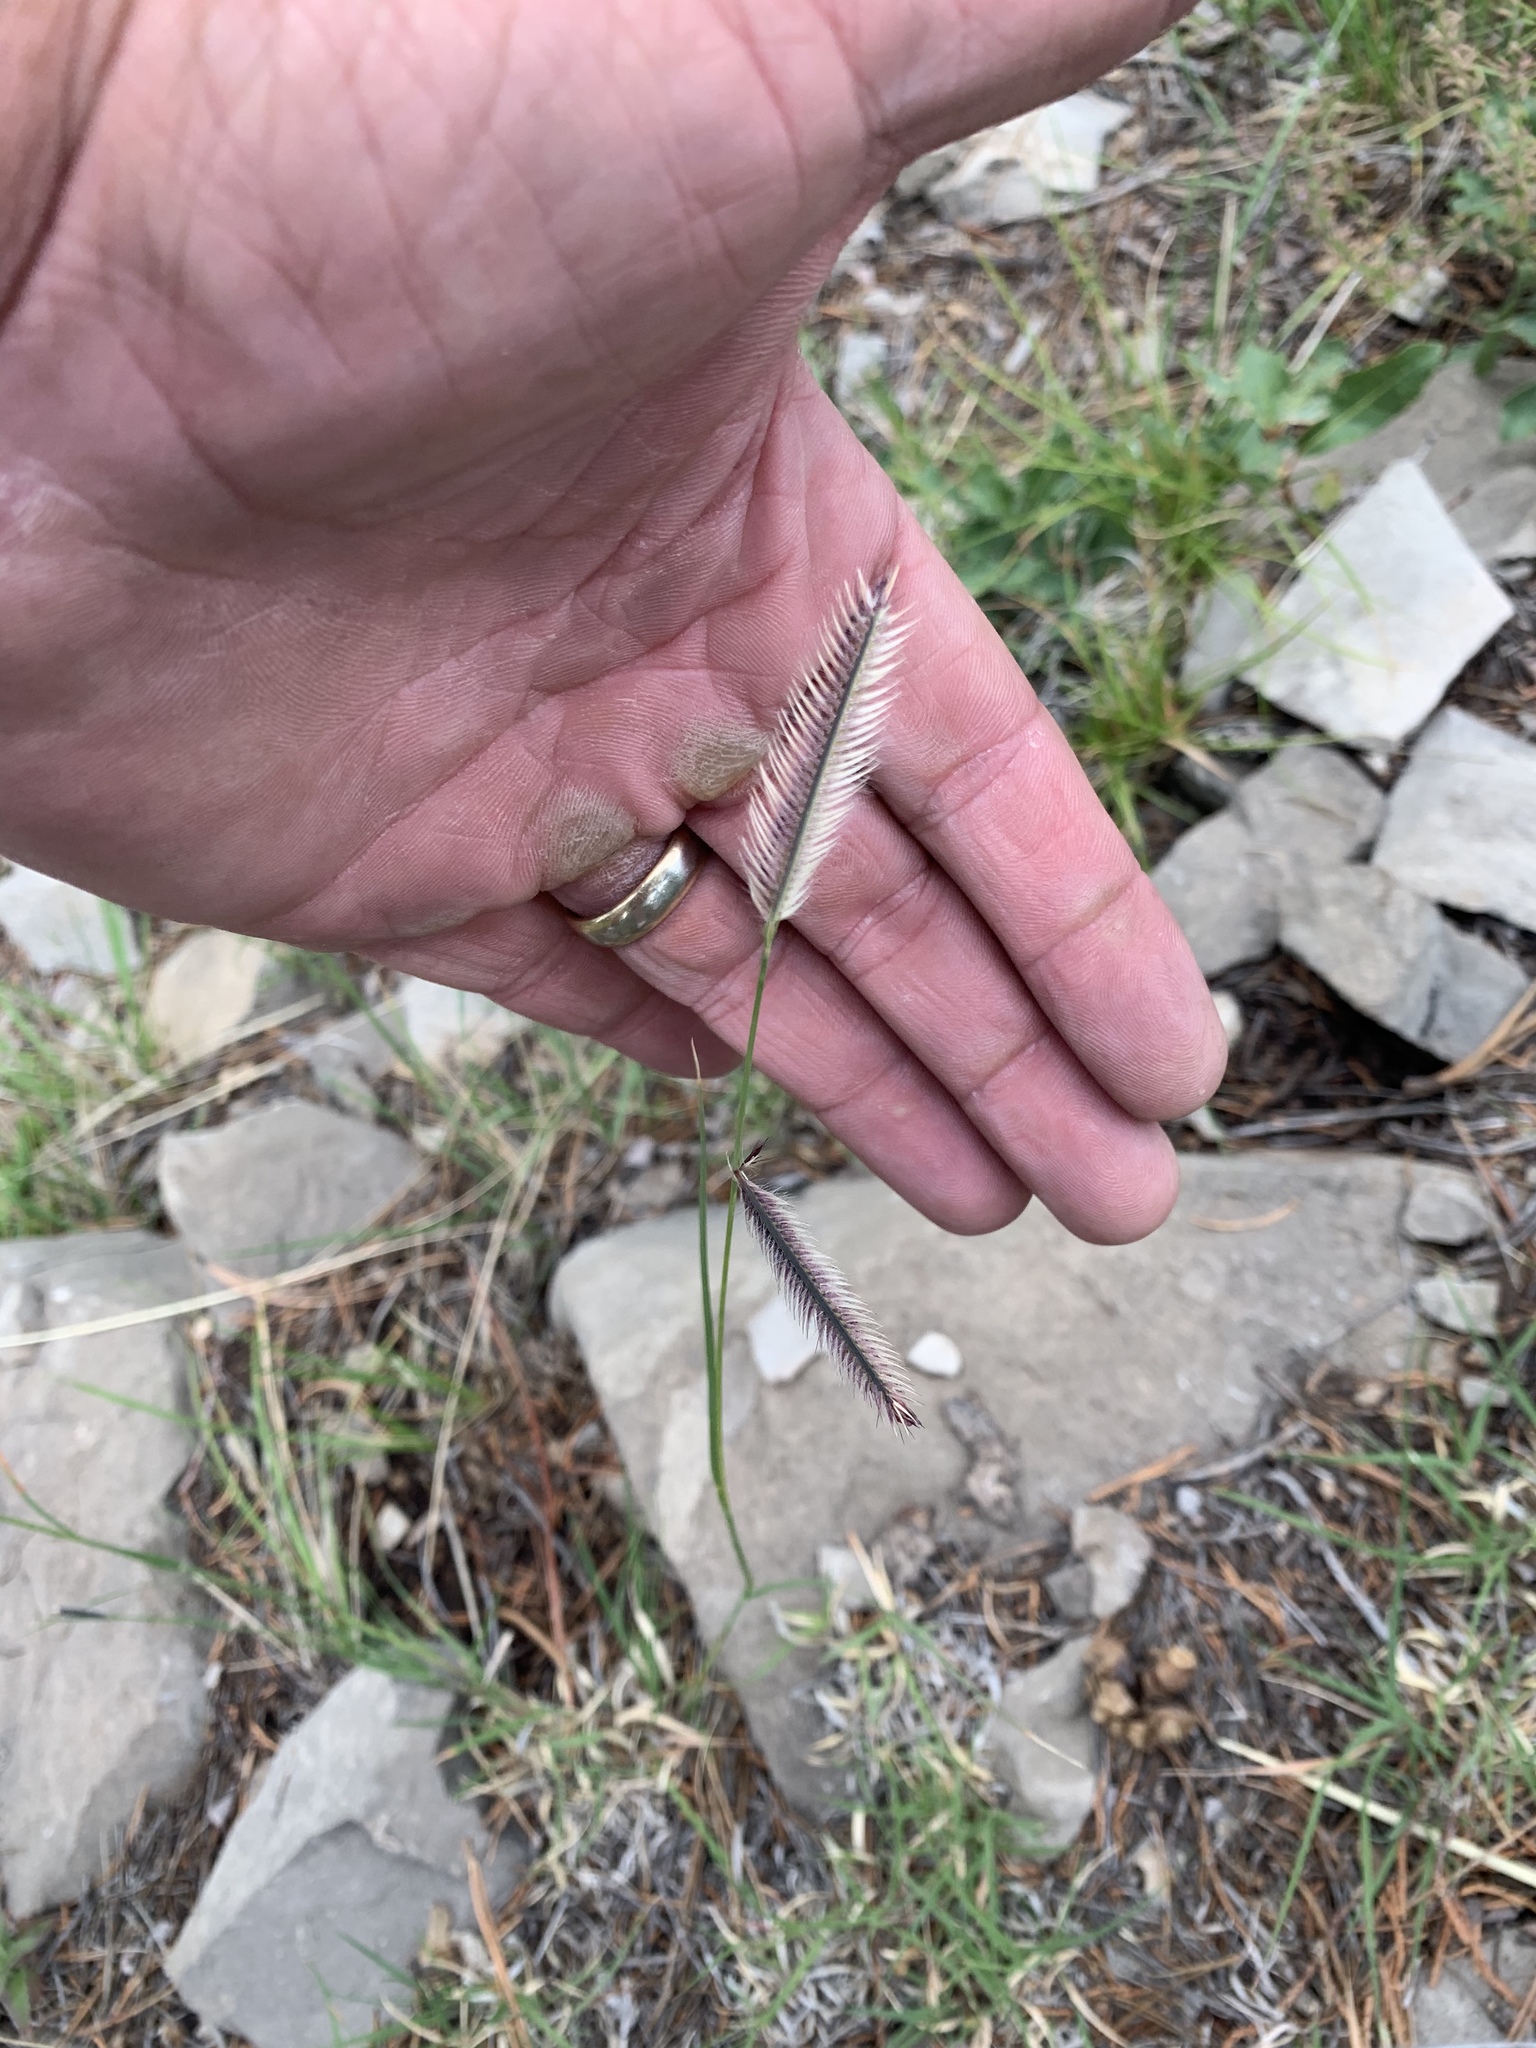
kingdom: Plantae
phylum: Tracheophyta
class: Liliopsida
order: Poales
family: Poaceae
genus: Bouteloua
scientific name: Bouteloua gracilis
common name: Blue grama
